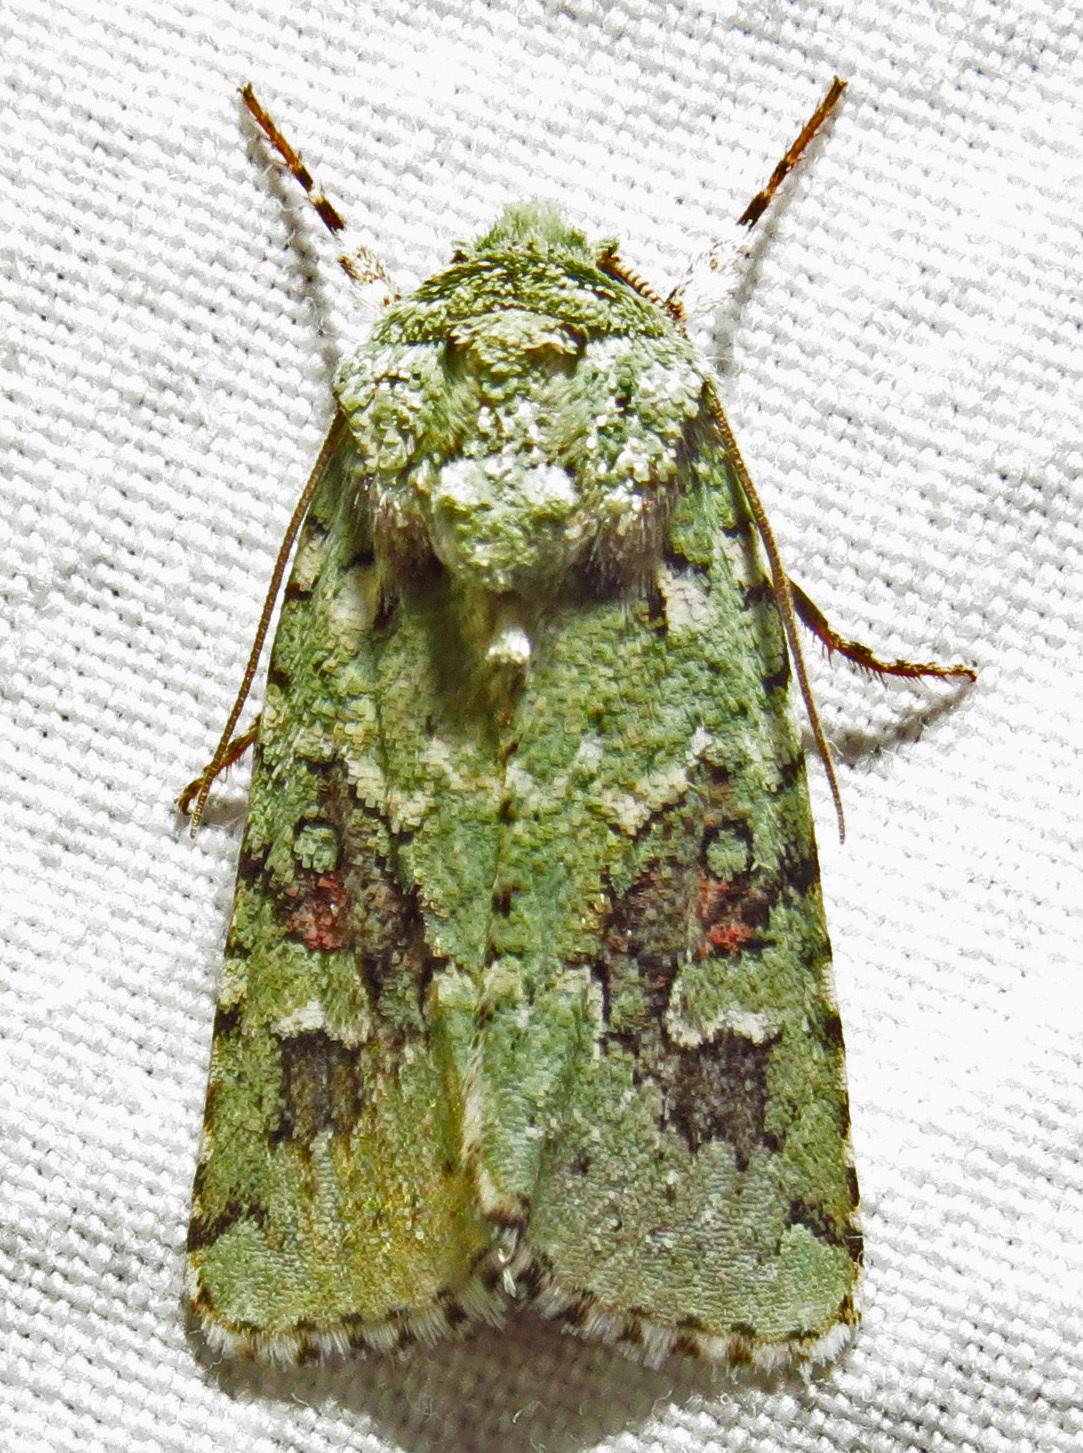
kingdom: Animalia
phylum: Arthropoda
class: Insecta
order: Lepidoptera
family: Noctuidae
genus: Lacinipolia
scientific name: Lacinipolia laudabilis
